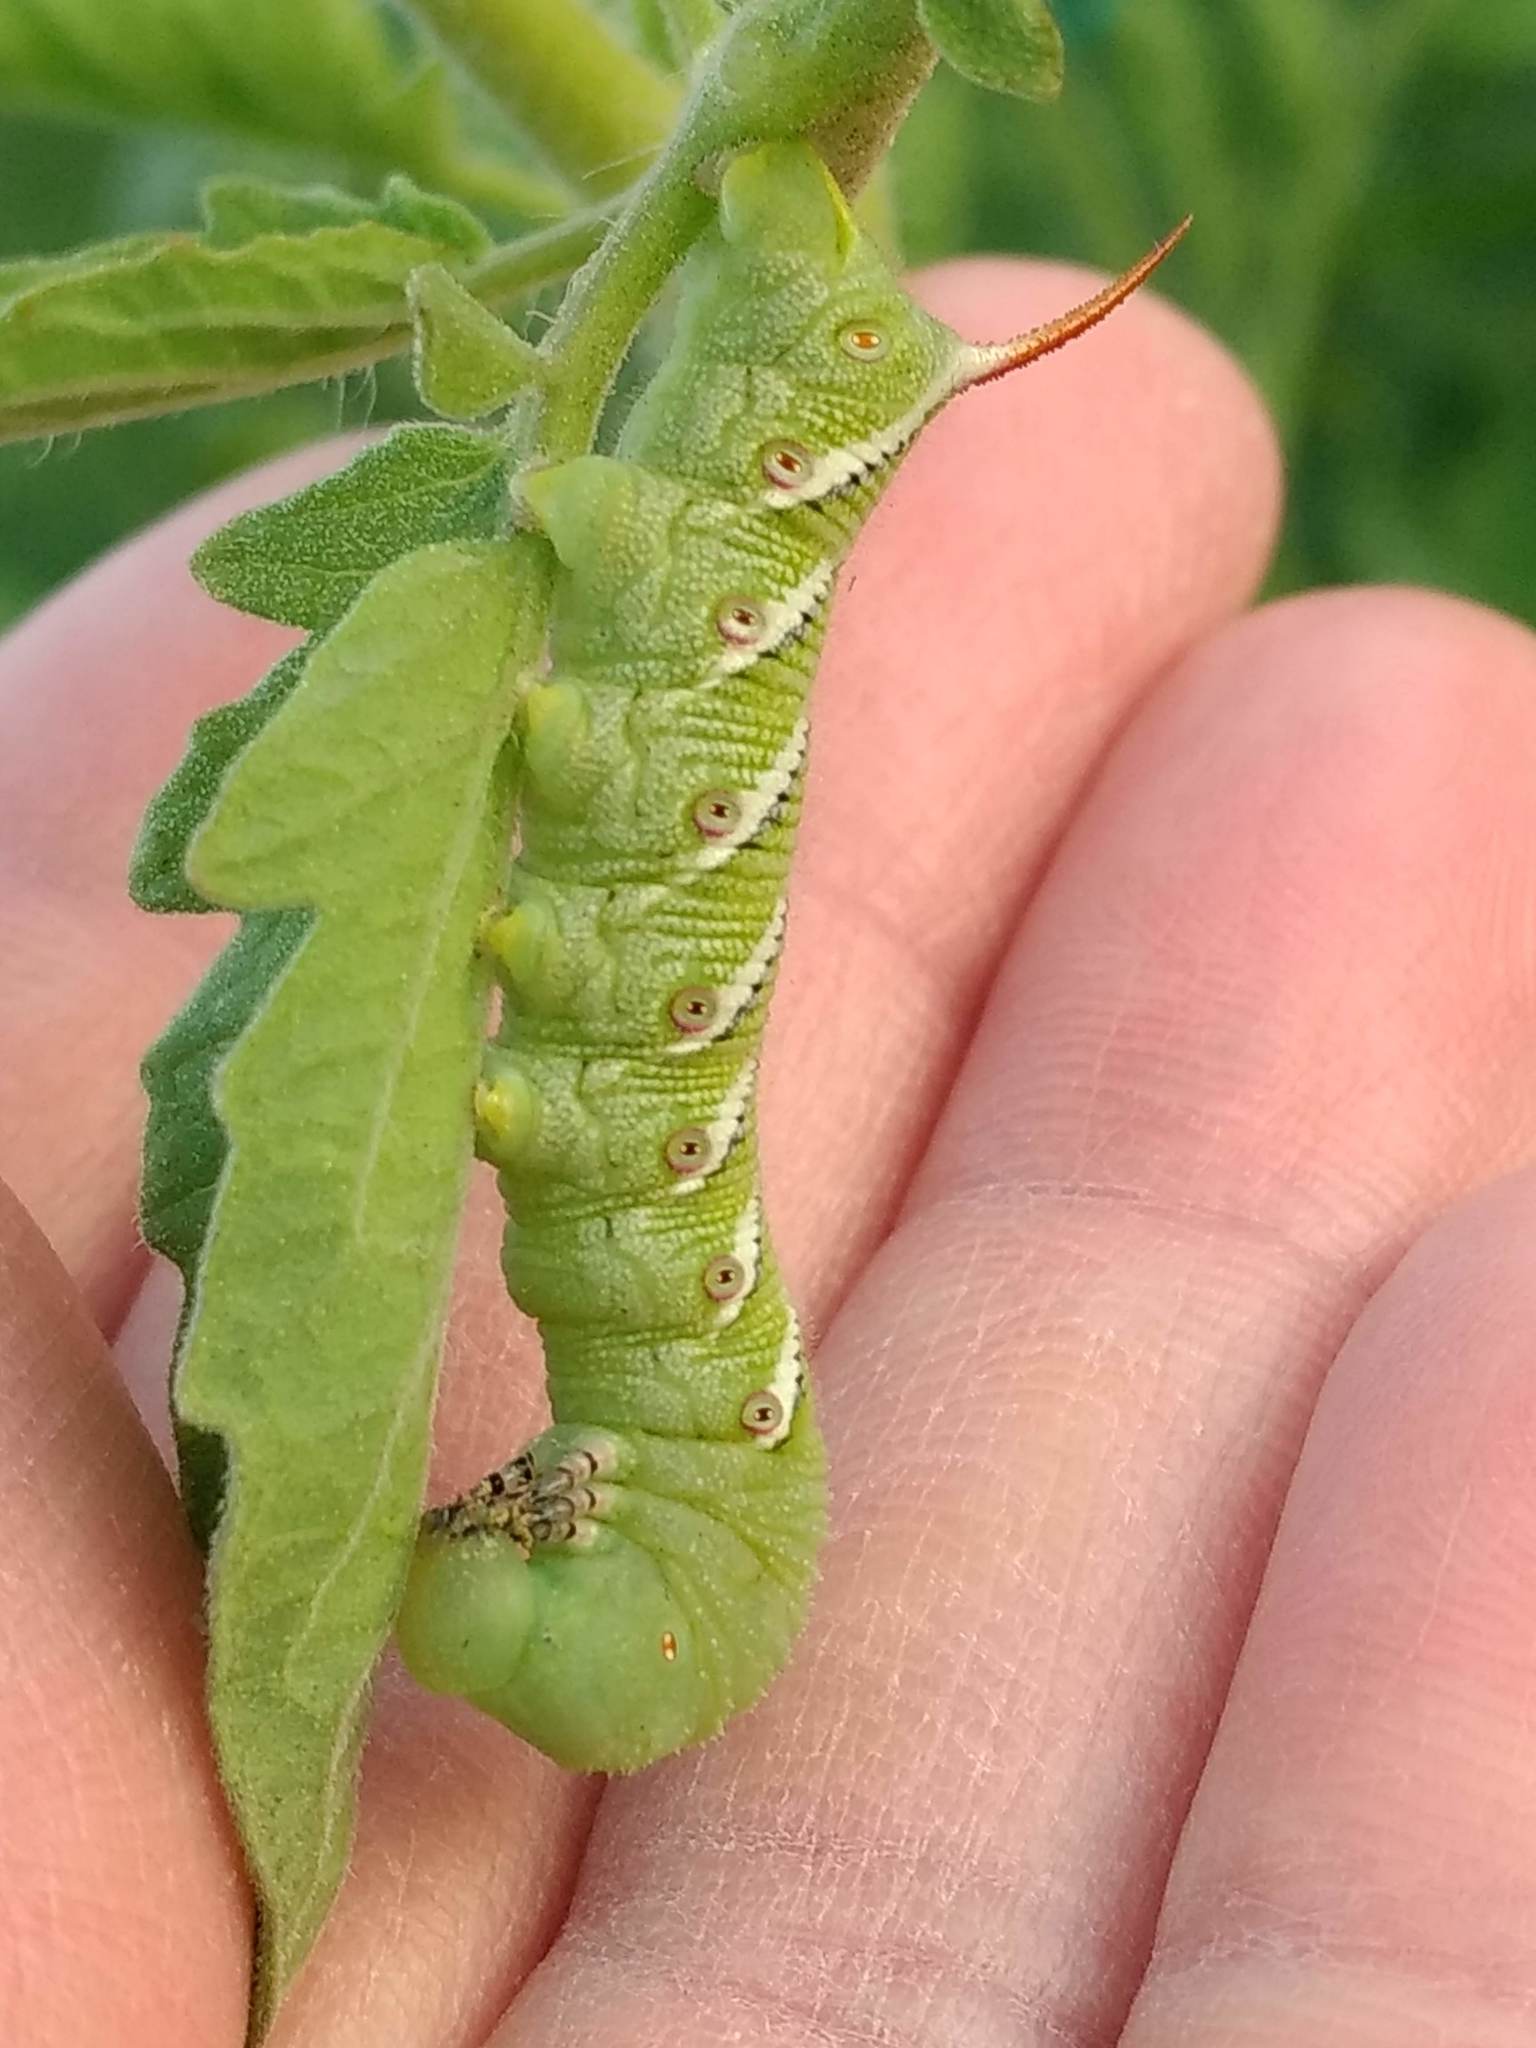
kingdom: Animalia
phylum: Arthropoda
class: Insecta
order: Lepidoptera
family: Sphingidae
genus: Manduca
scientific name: Manduca sexta
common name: Carolina sphinx
